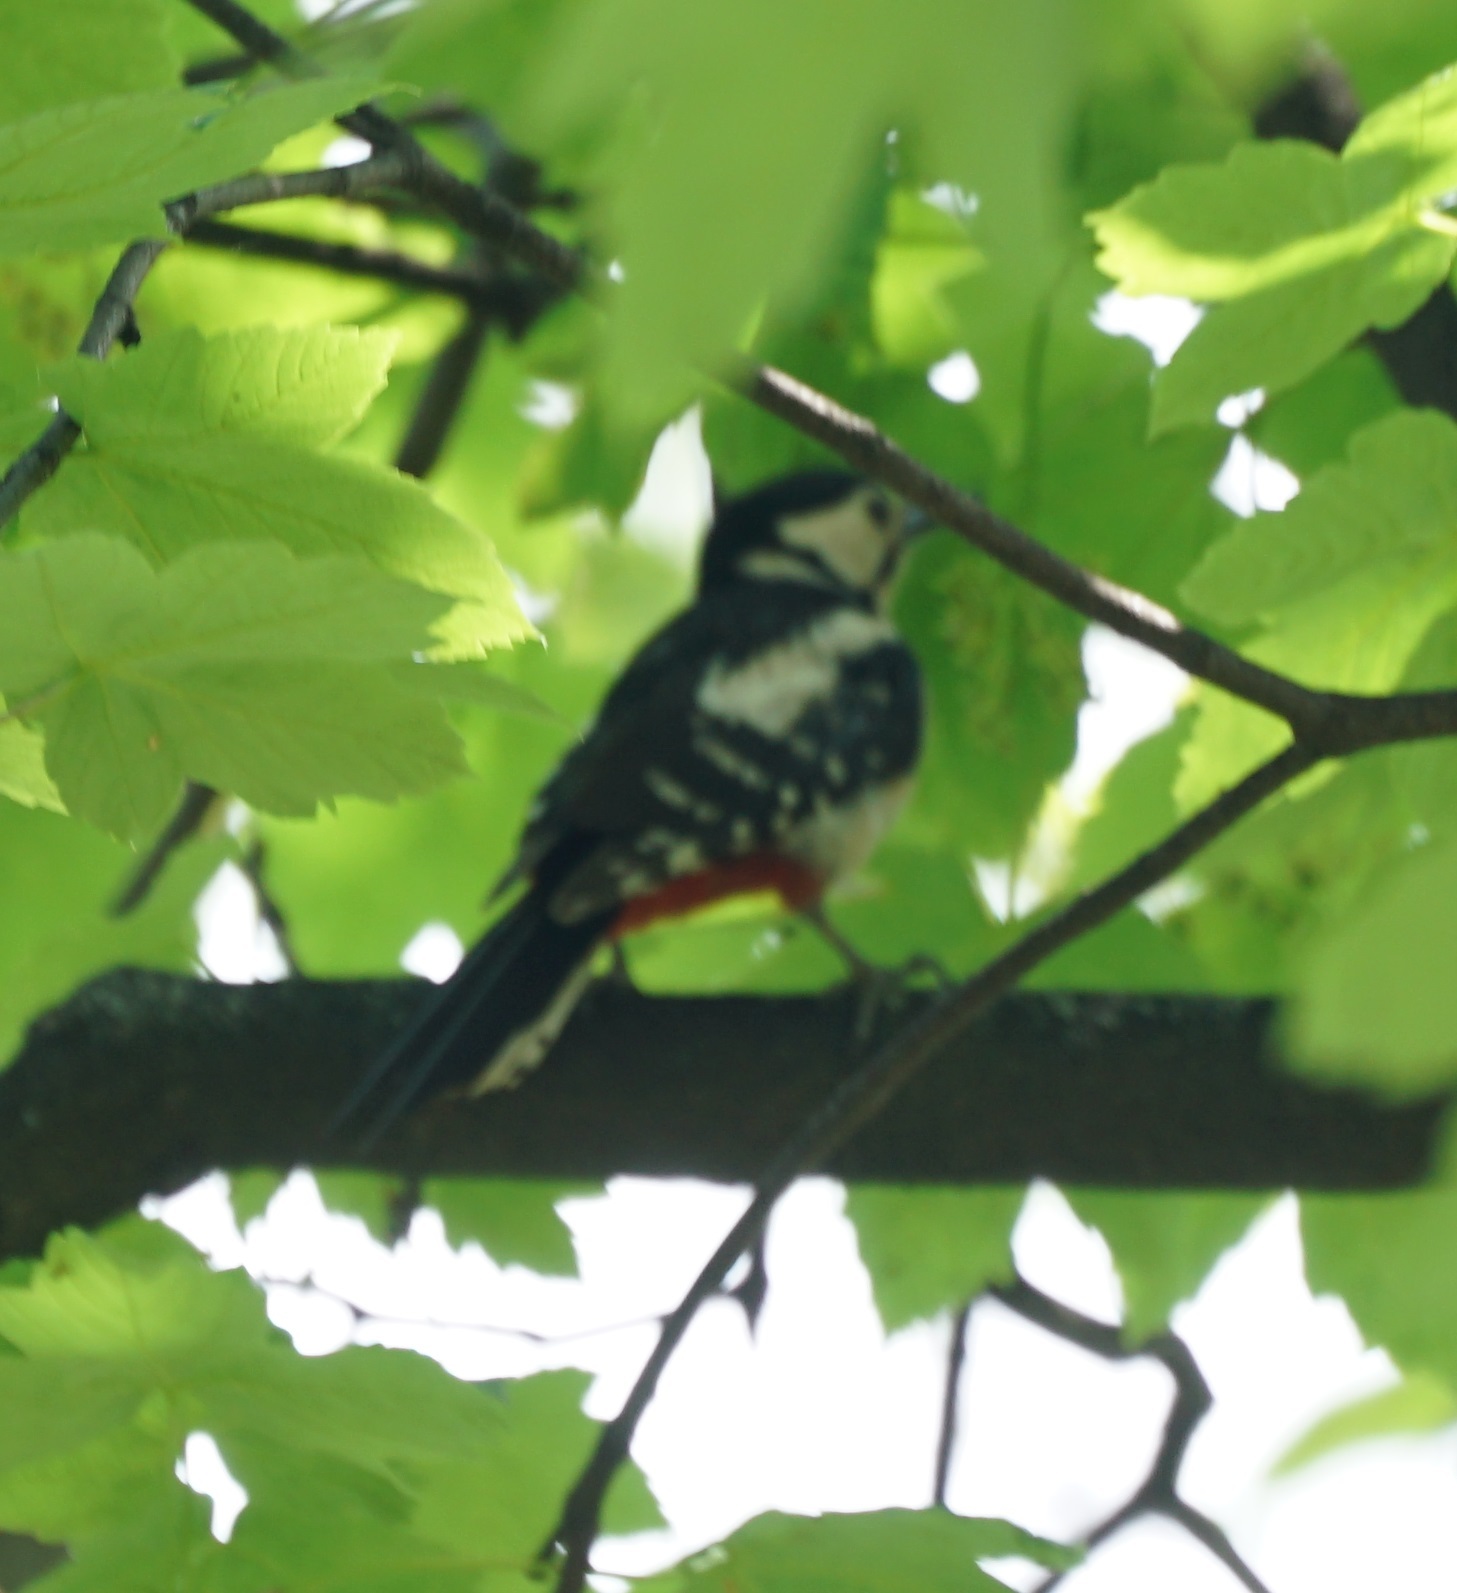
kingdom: Animalia
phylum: Chordata
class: Aves
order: Piciformes
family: Picidae
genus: Dendrocopos
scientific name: Dendrocopos major
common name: Great spotted woodpecker
